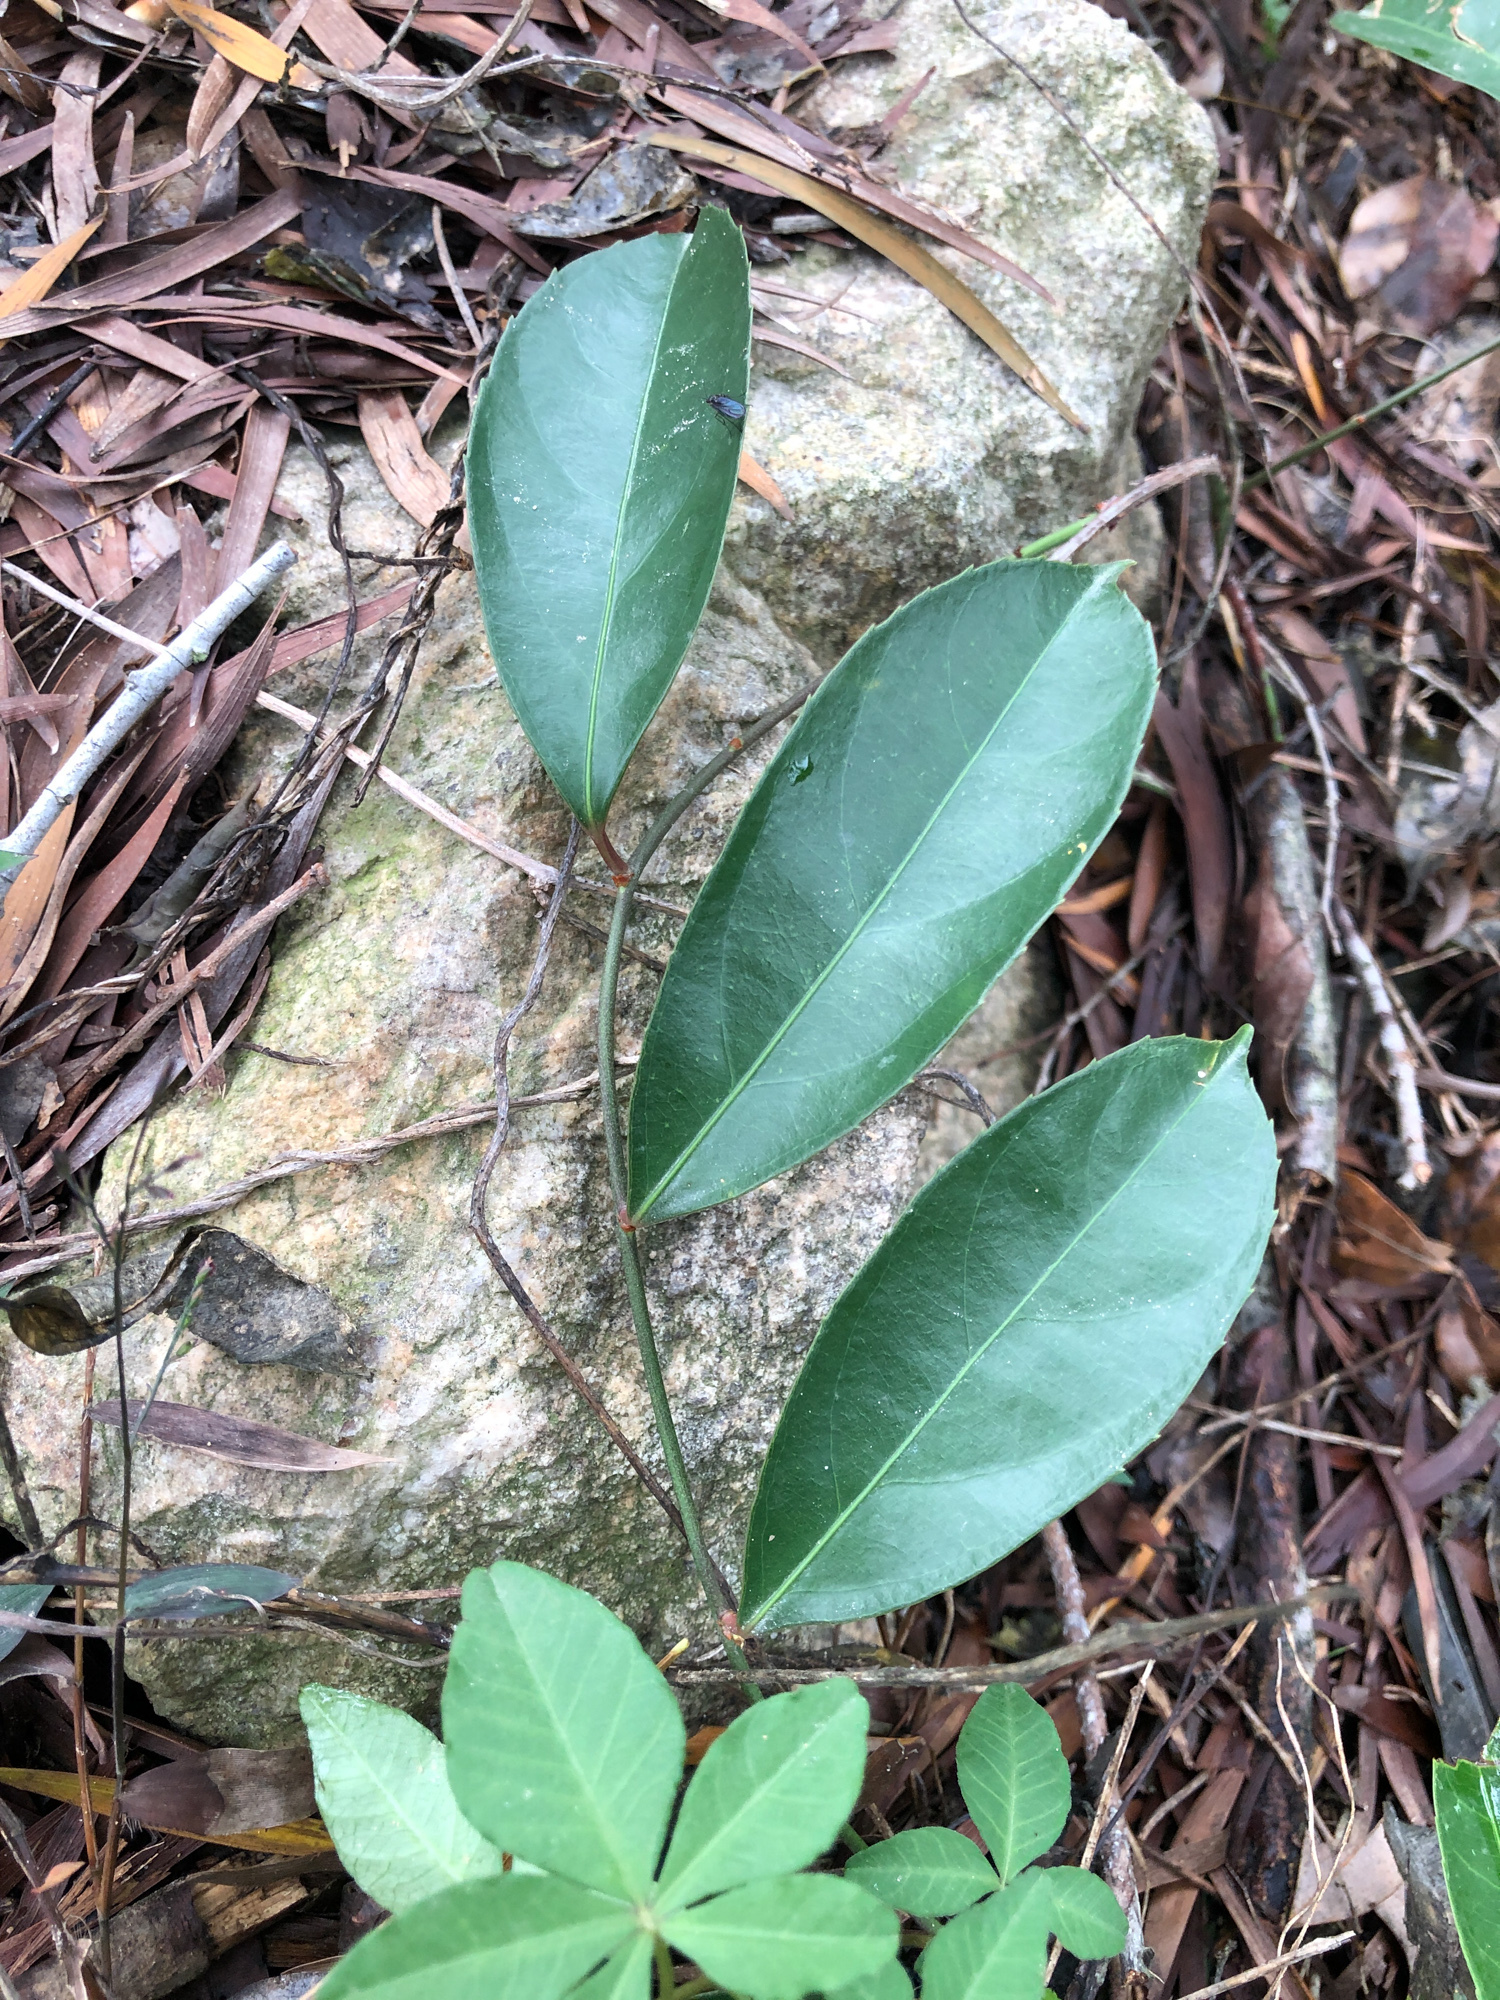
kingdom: Plantae
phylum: Tracheophyta
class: Magnoliopsida
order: Celastrales
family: Celastraceae
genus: Celastrus
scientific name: Celastrus hindsii
